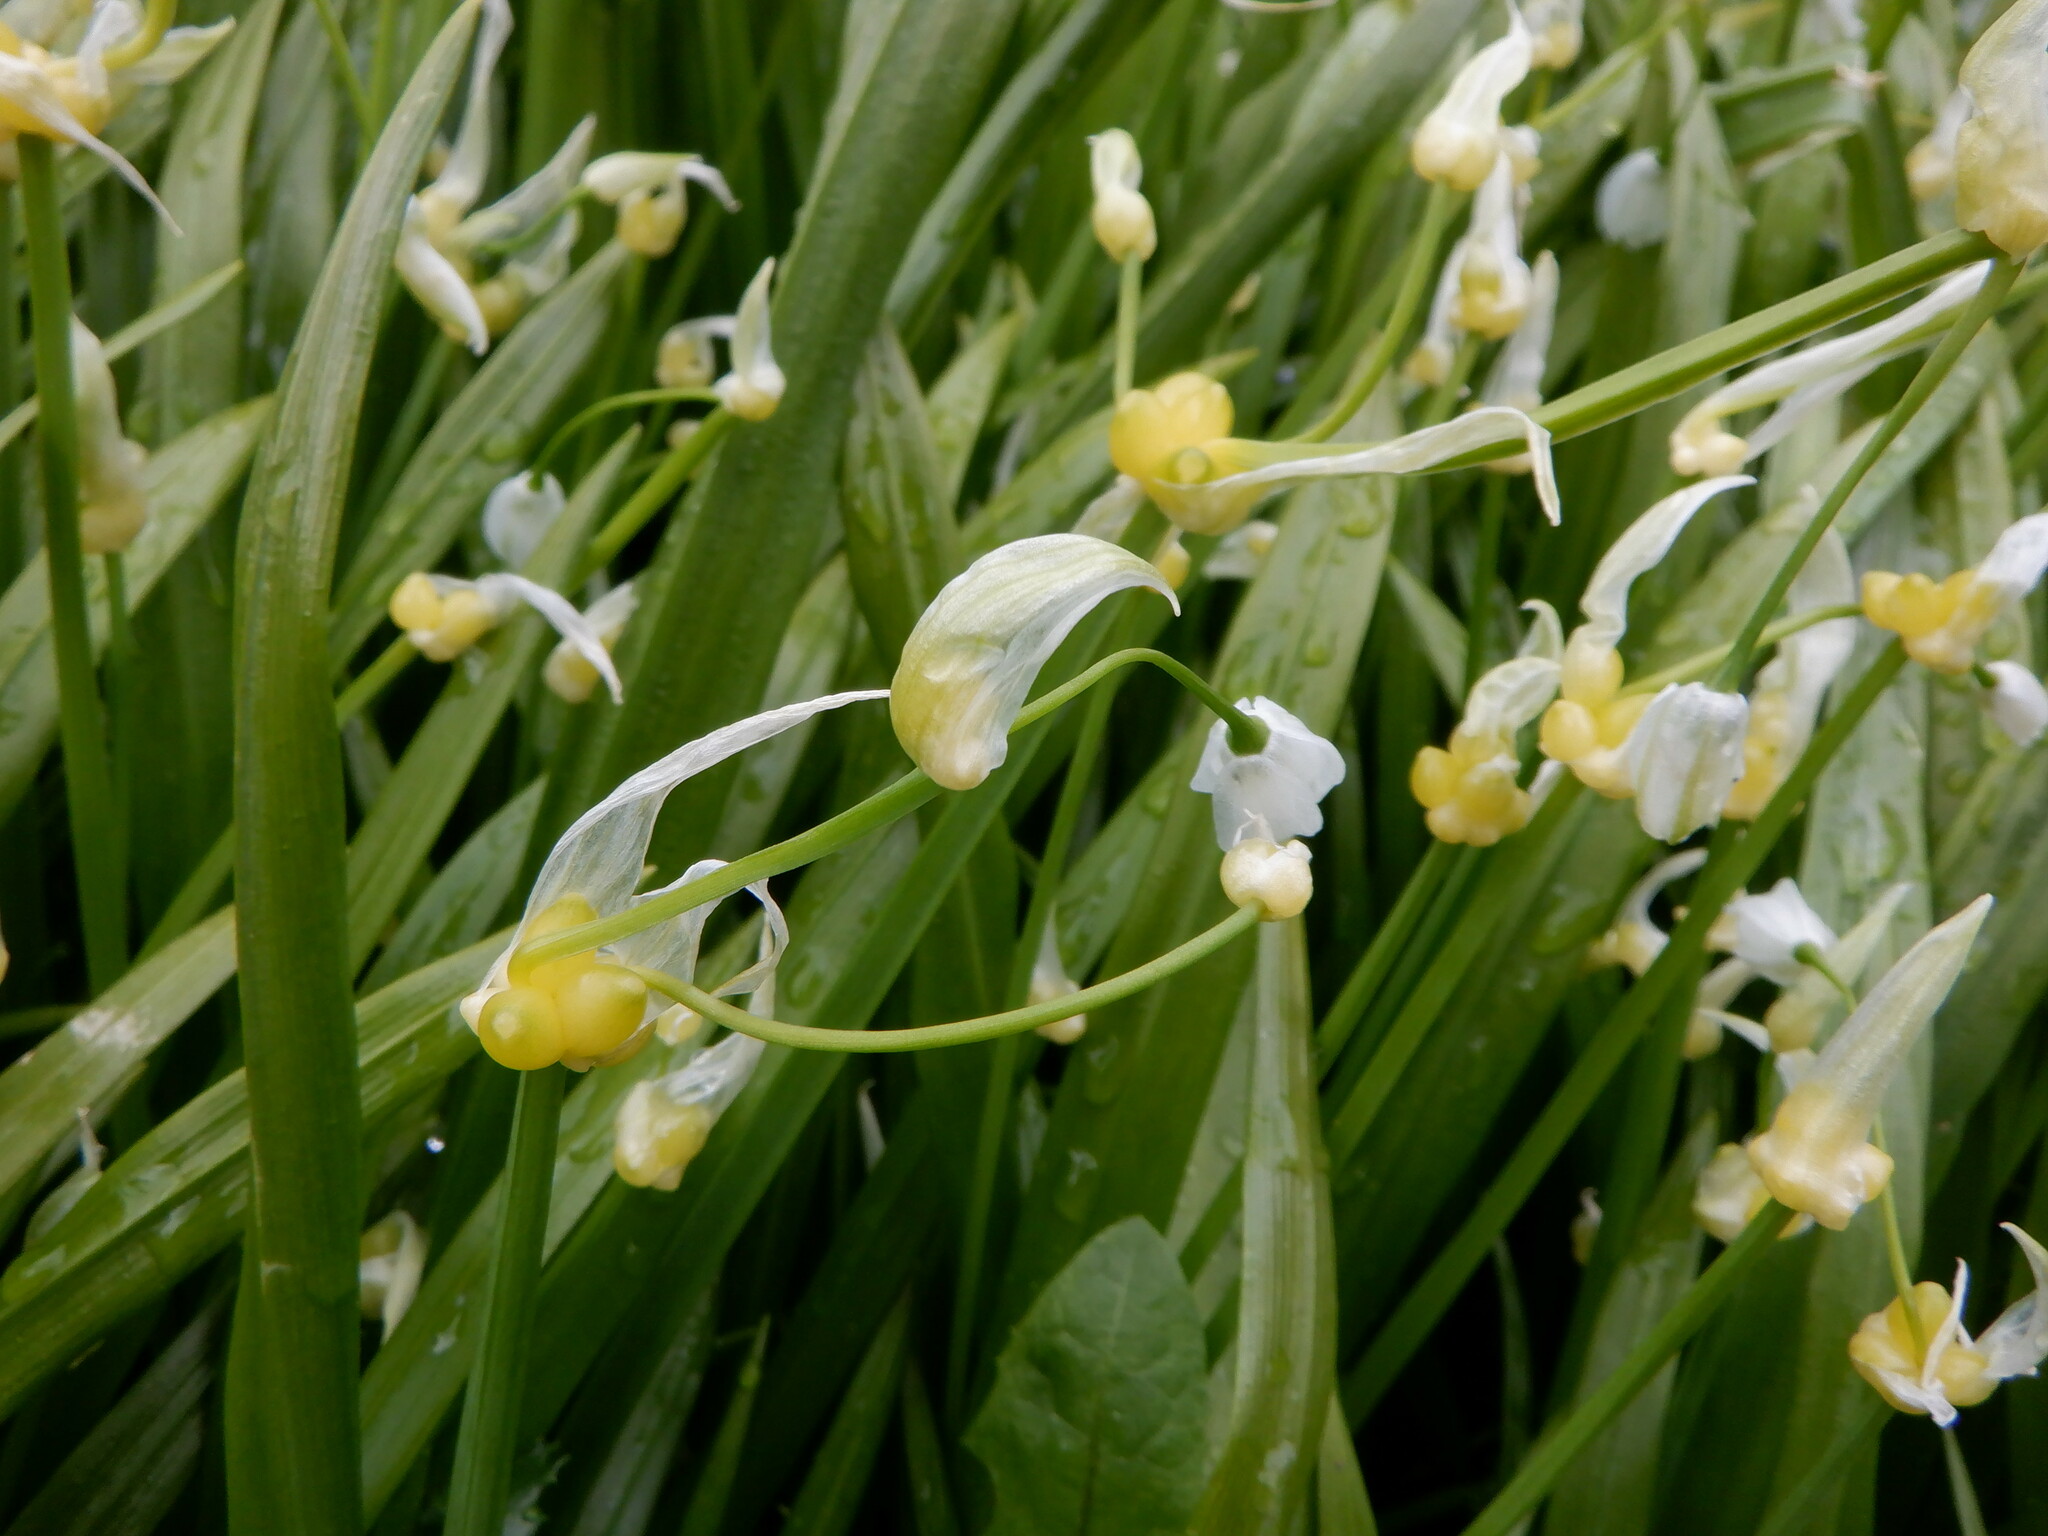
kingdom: Plantae
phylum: Tracheophyta
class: Liliopsida
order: Asparagales
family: Amaryllidaceae
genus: Allium
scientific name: Allium paradoxum
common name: Few-flowered garlic
